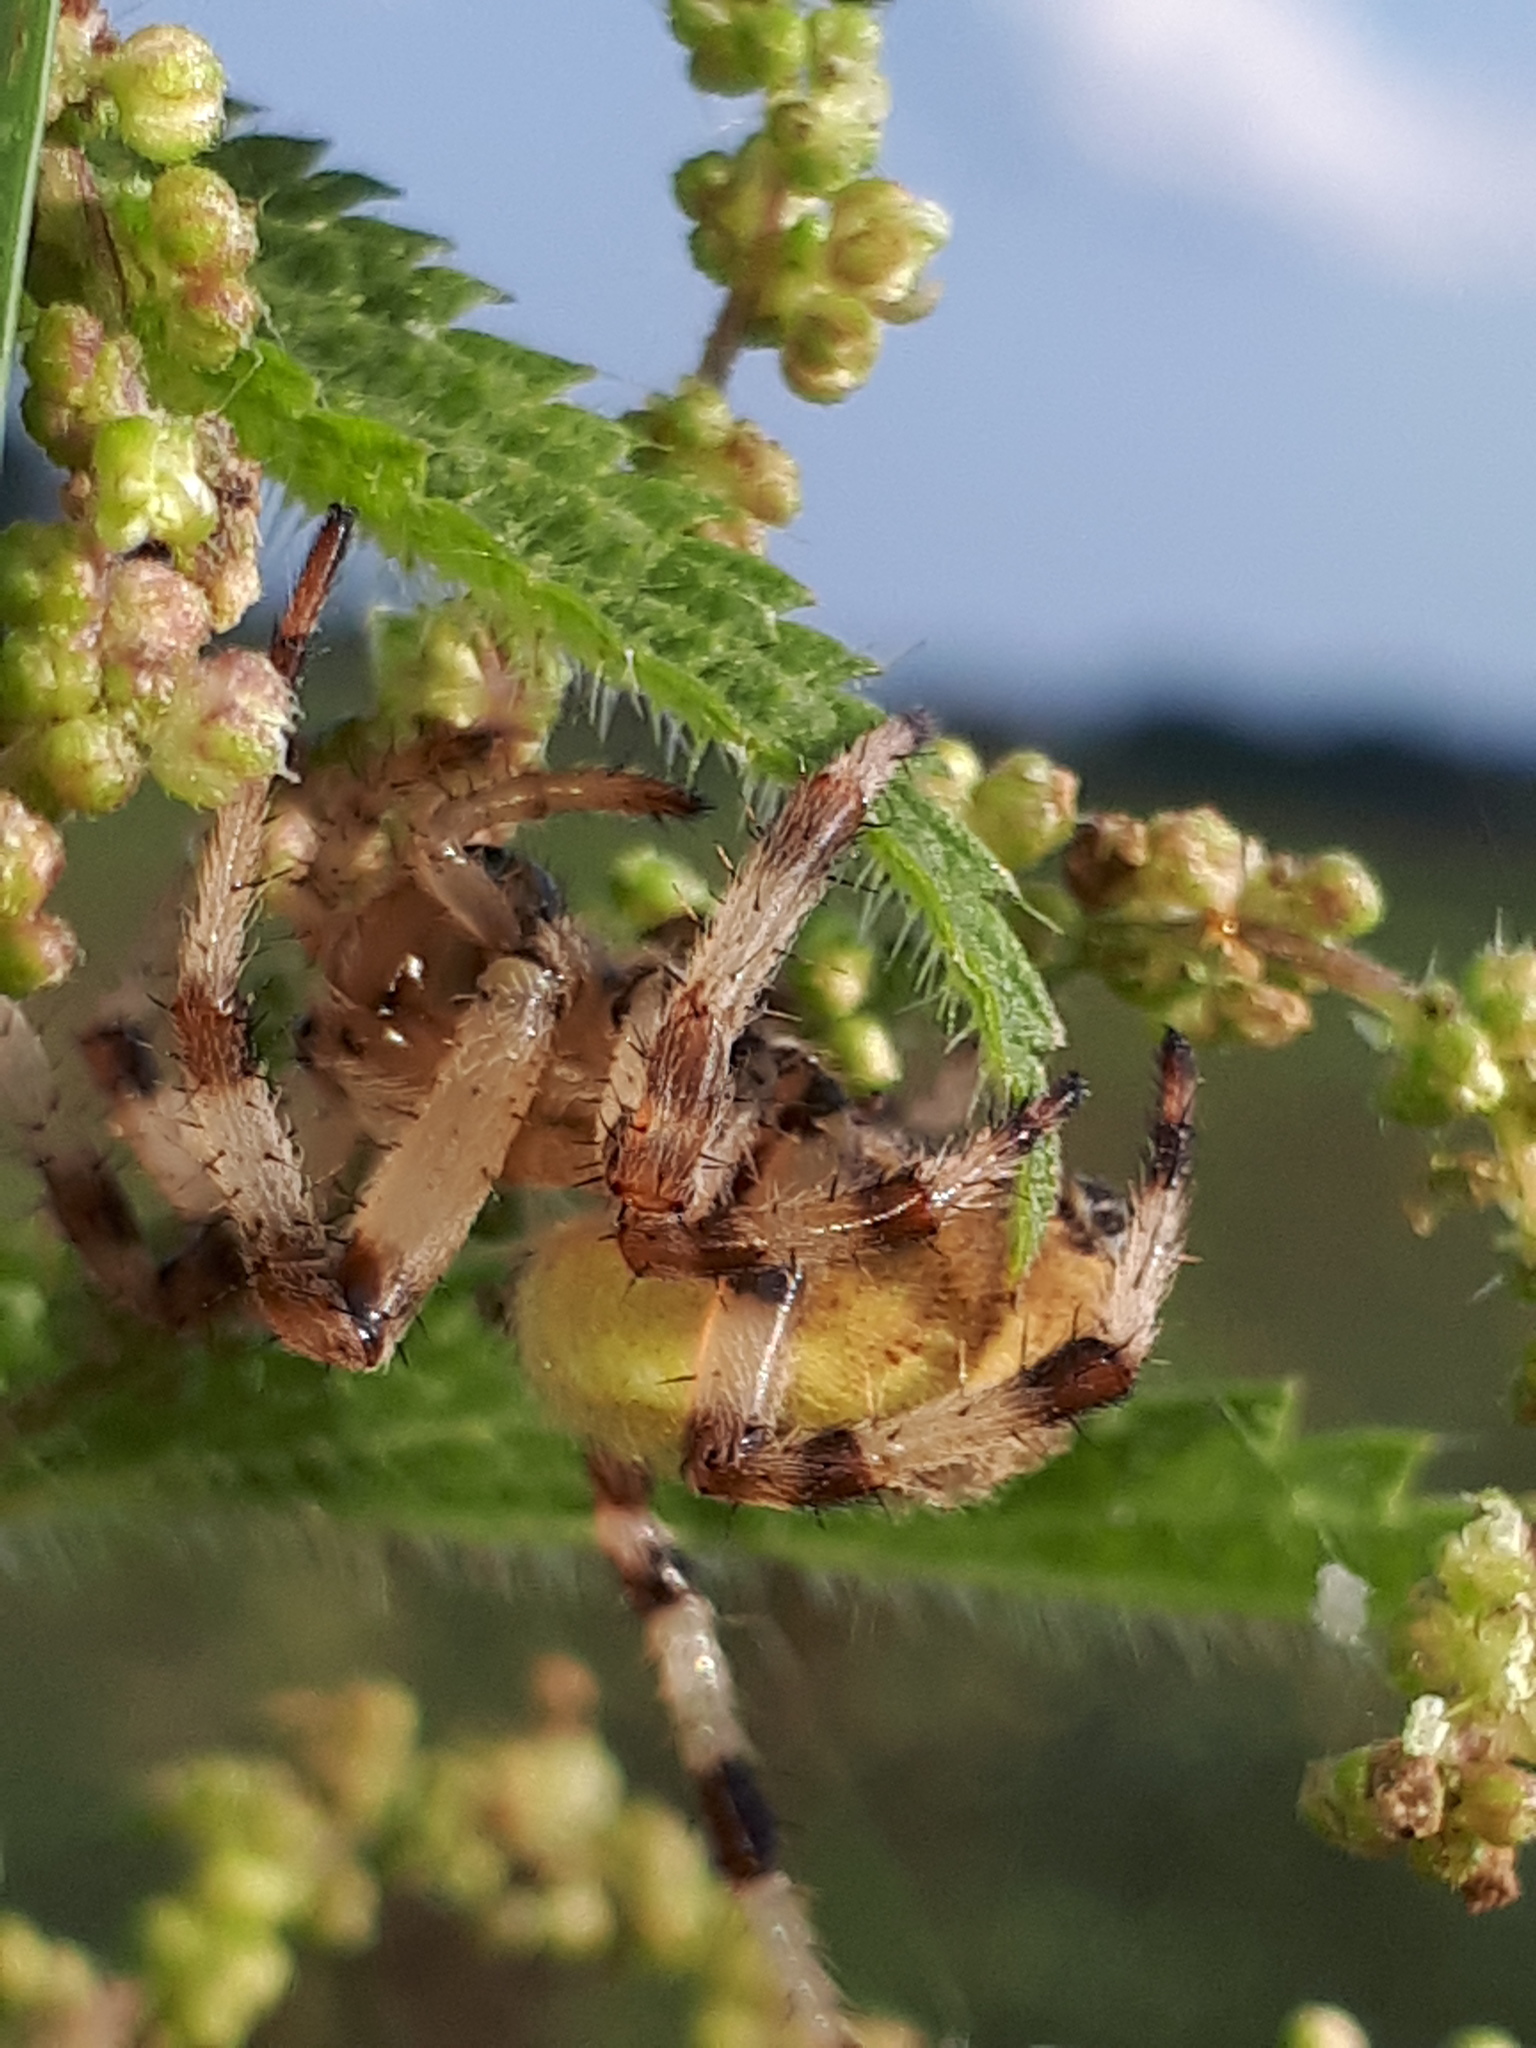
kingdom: Animalia
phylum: Arthropoda
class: Arachnida
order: Araneae
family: Araneidae
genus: Araneus
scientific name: Araneus quadratus
